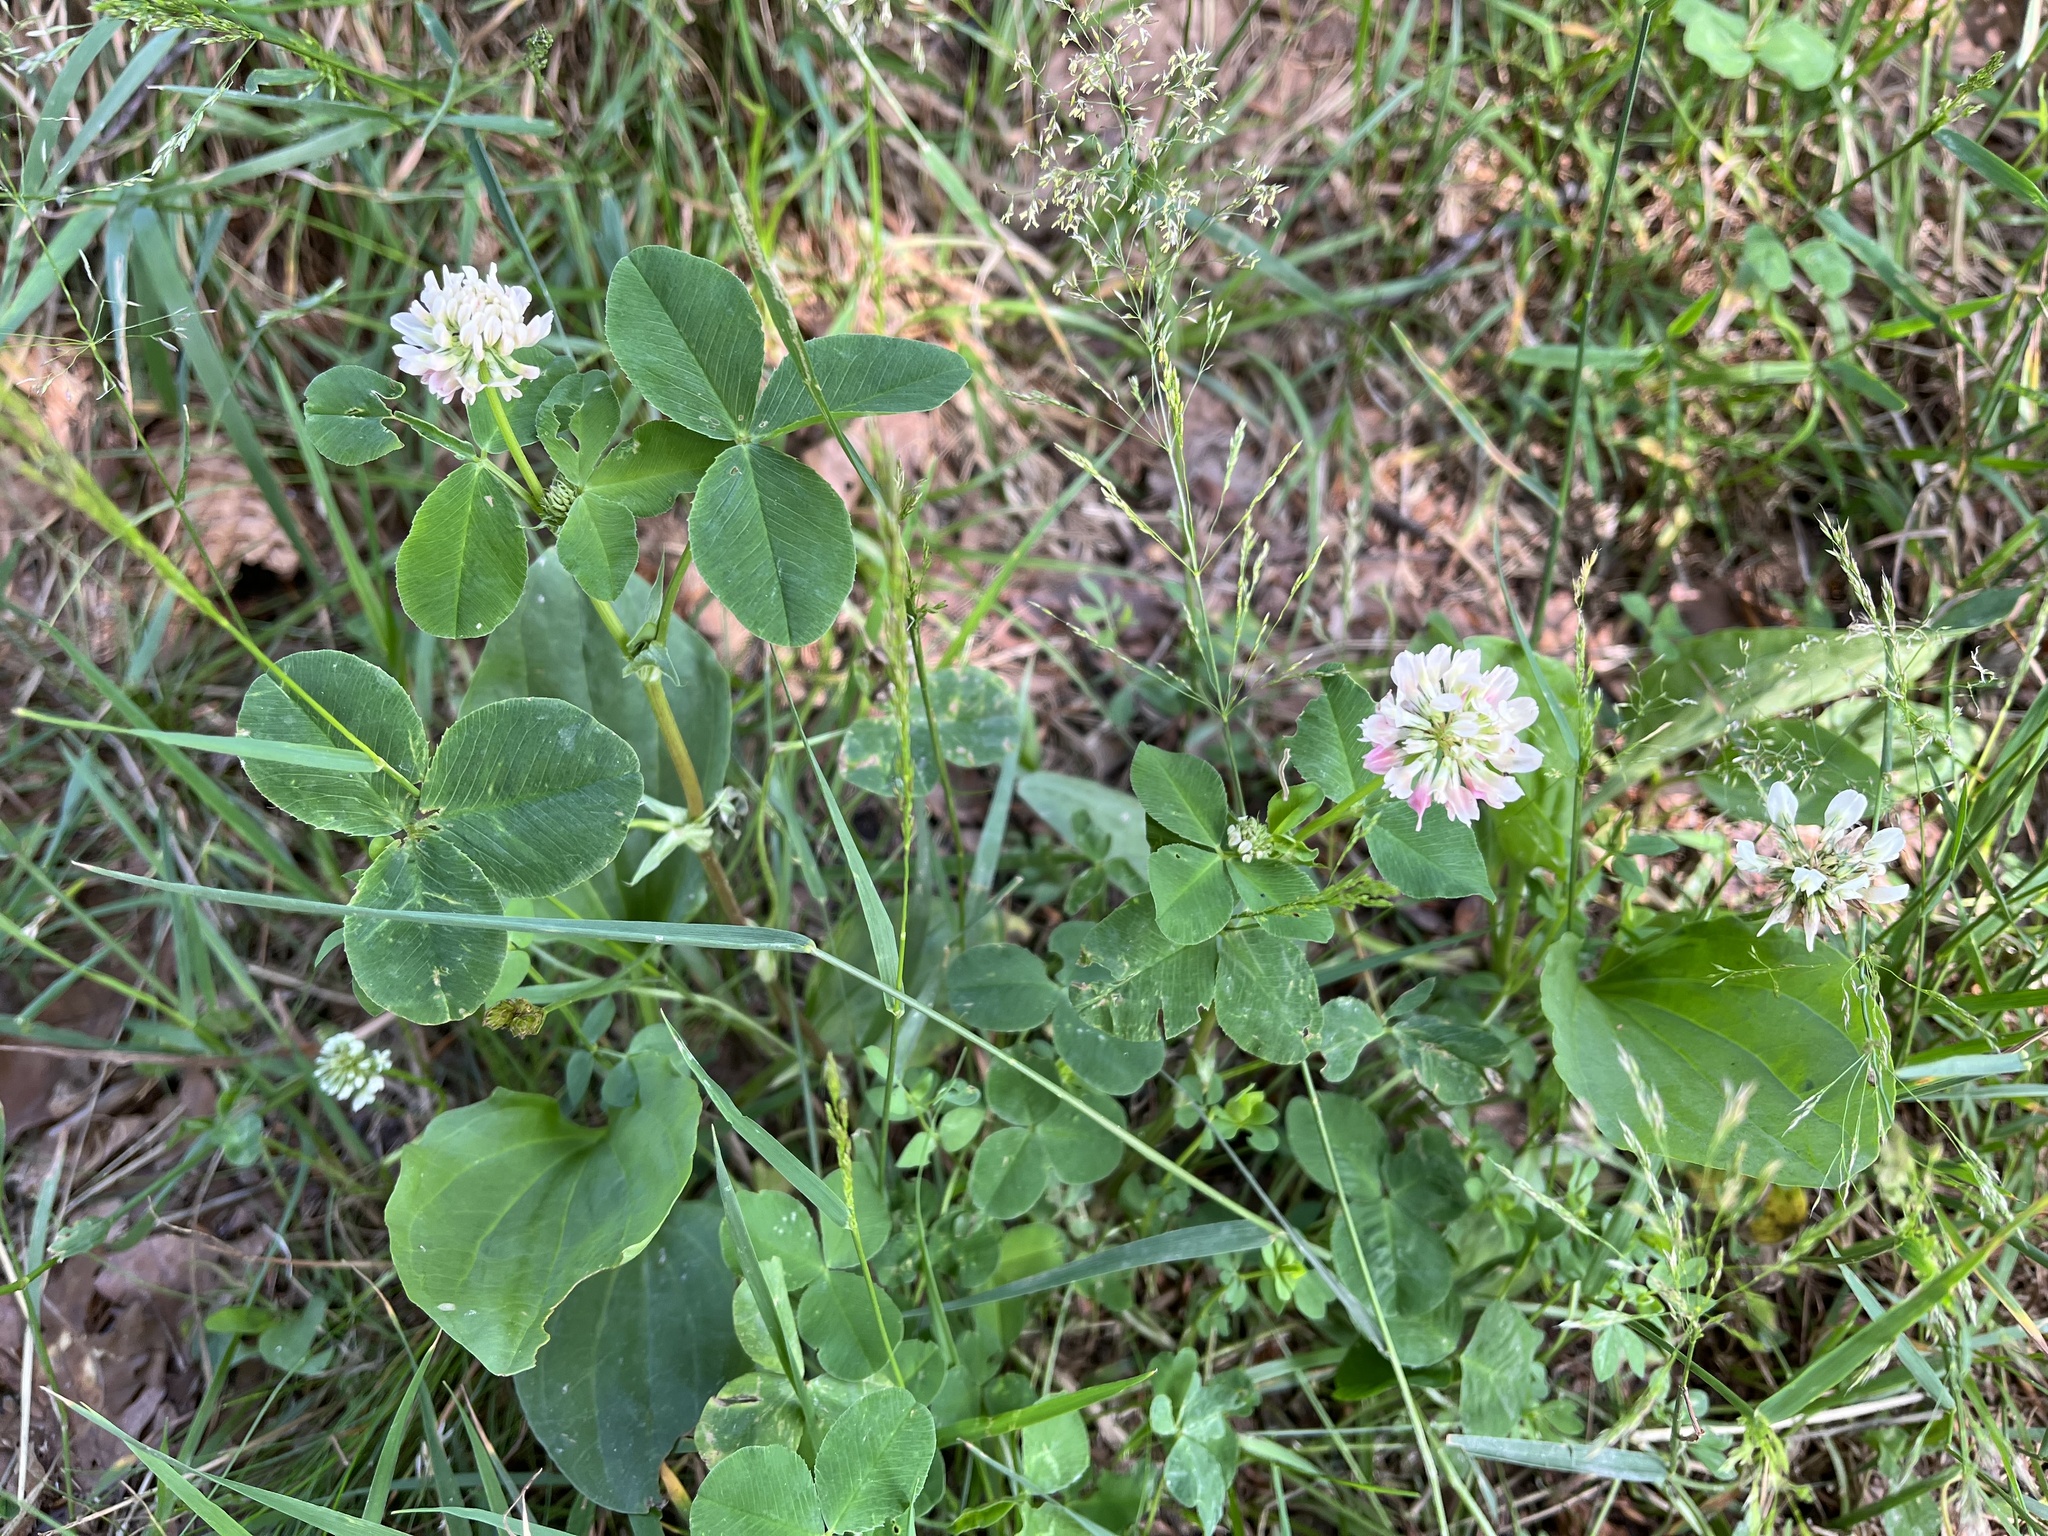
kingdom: Plantae
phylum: Tracheophyta
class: Magnoliopsida
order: Fabales
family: Fabaceae
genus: Trifolium
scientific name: Trifolium hybridum
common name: Alsike clover
